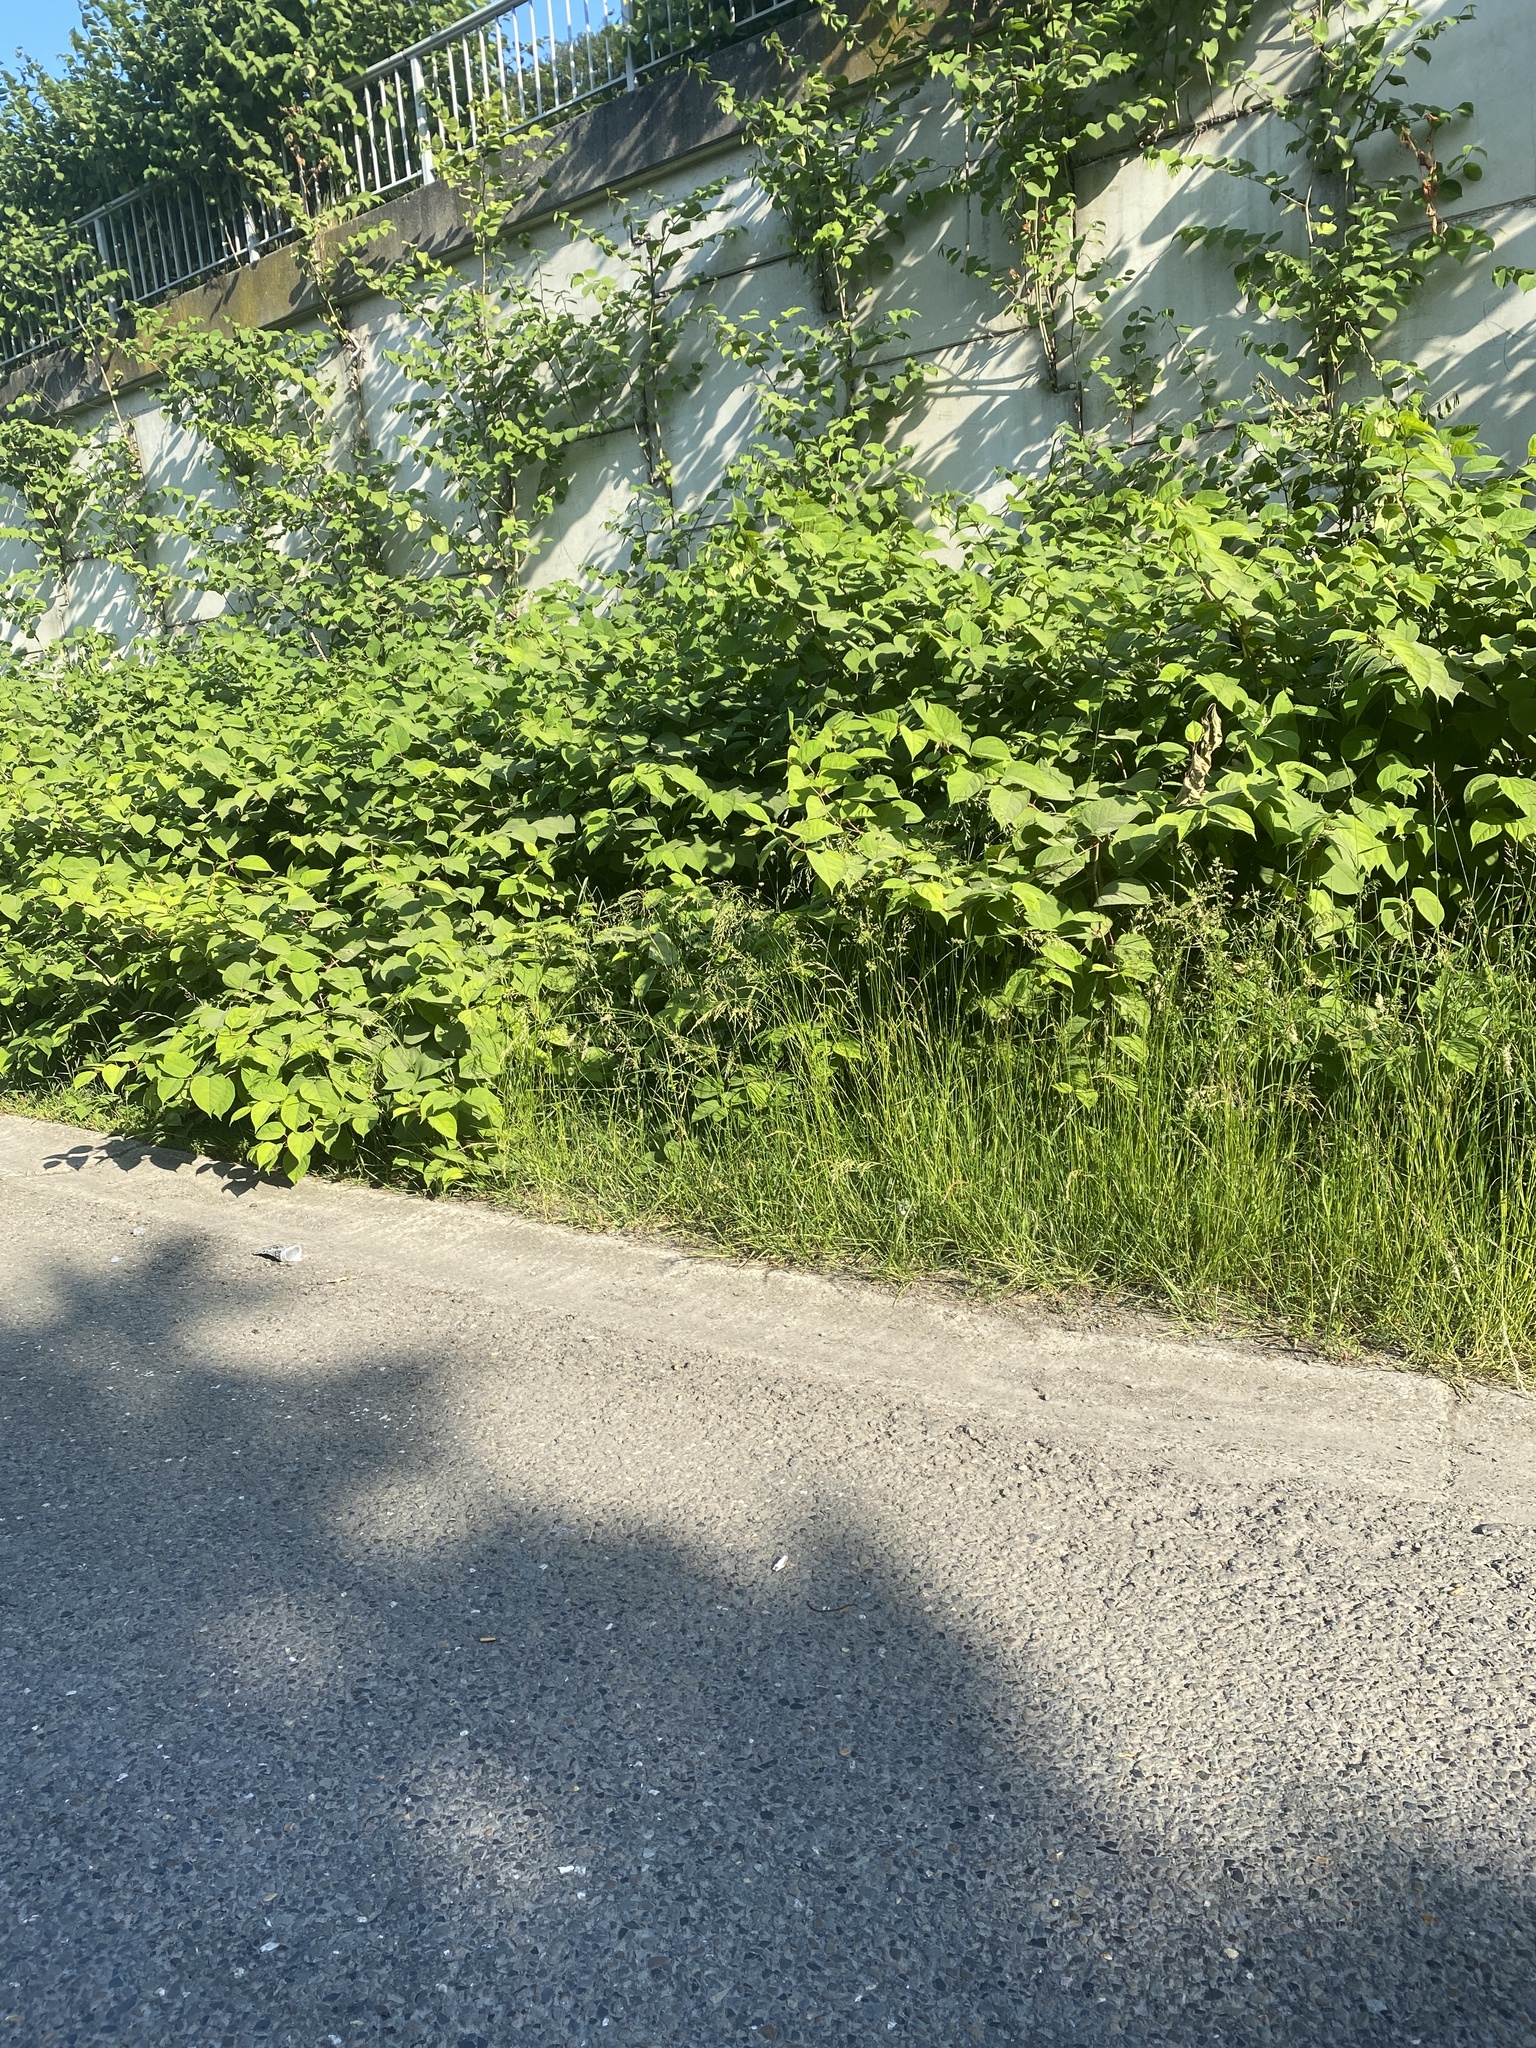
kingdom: Plantae
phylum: Tracheophyta
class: Magnoliopsida
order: Caryophyllales
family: Polygonaceae
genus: Reynoutria
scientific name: Reynoutria japonica
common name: Japanese knotweed
